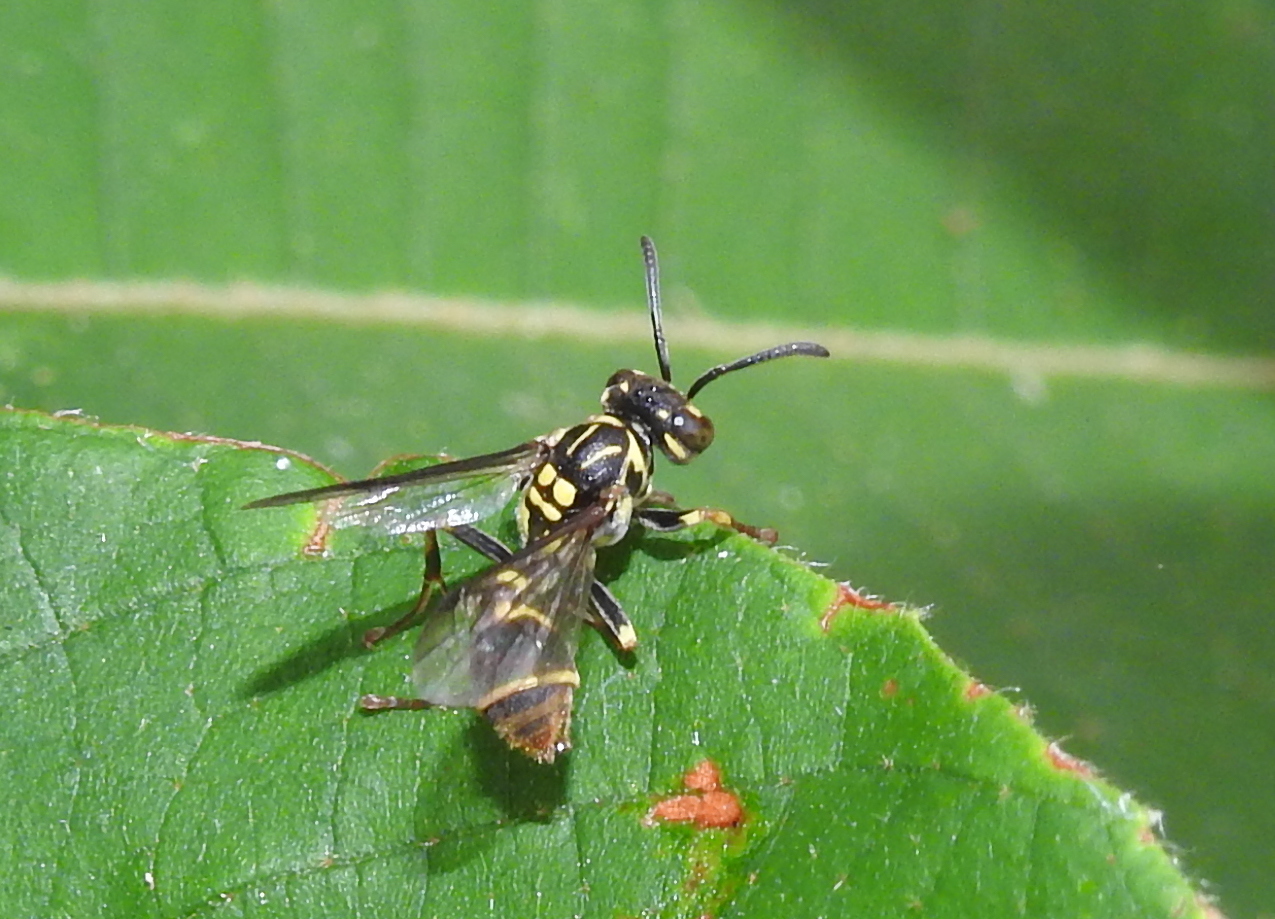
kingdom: Animalia
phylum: Arthropoda
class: Insecta
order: Hymenoptera
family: Vespidae
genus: Ropalidia
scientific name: Ropalidia flavopicta
